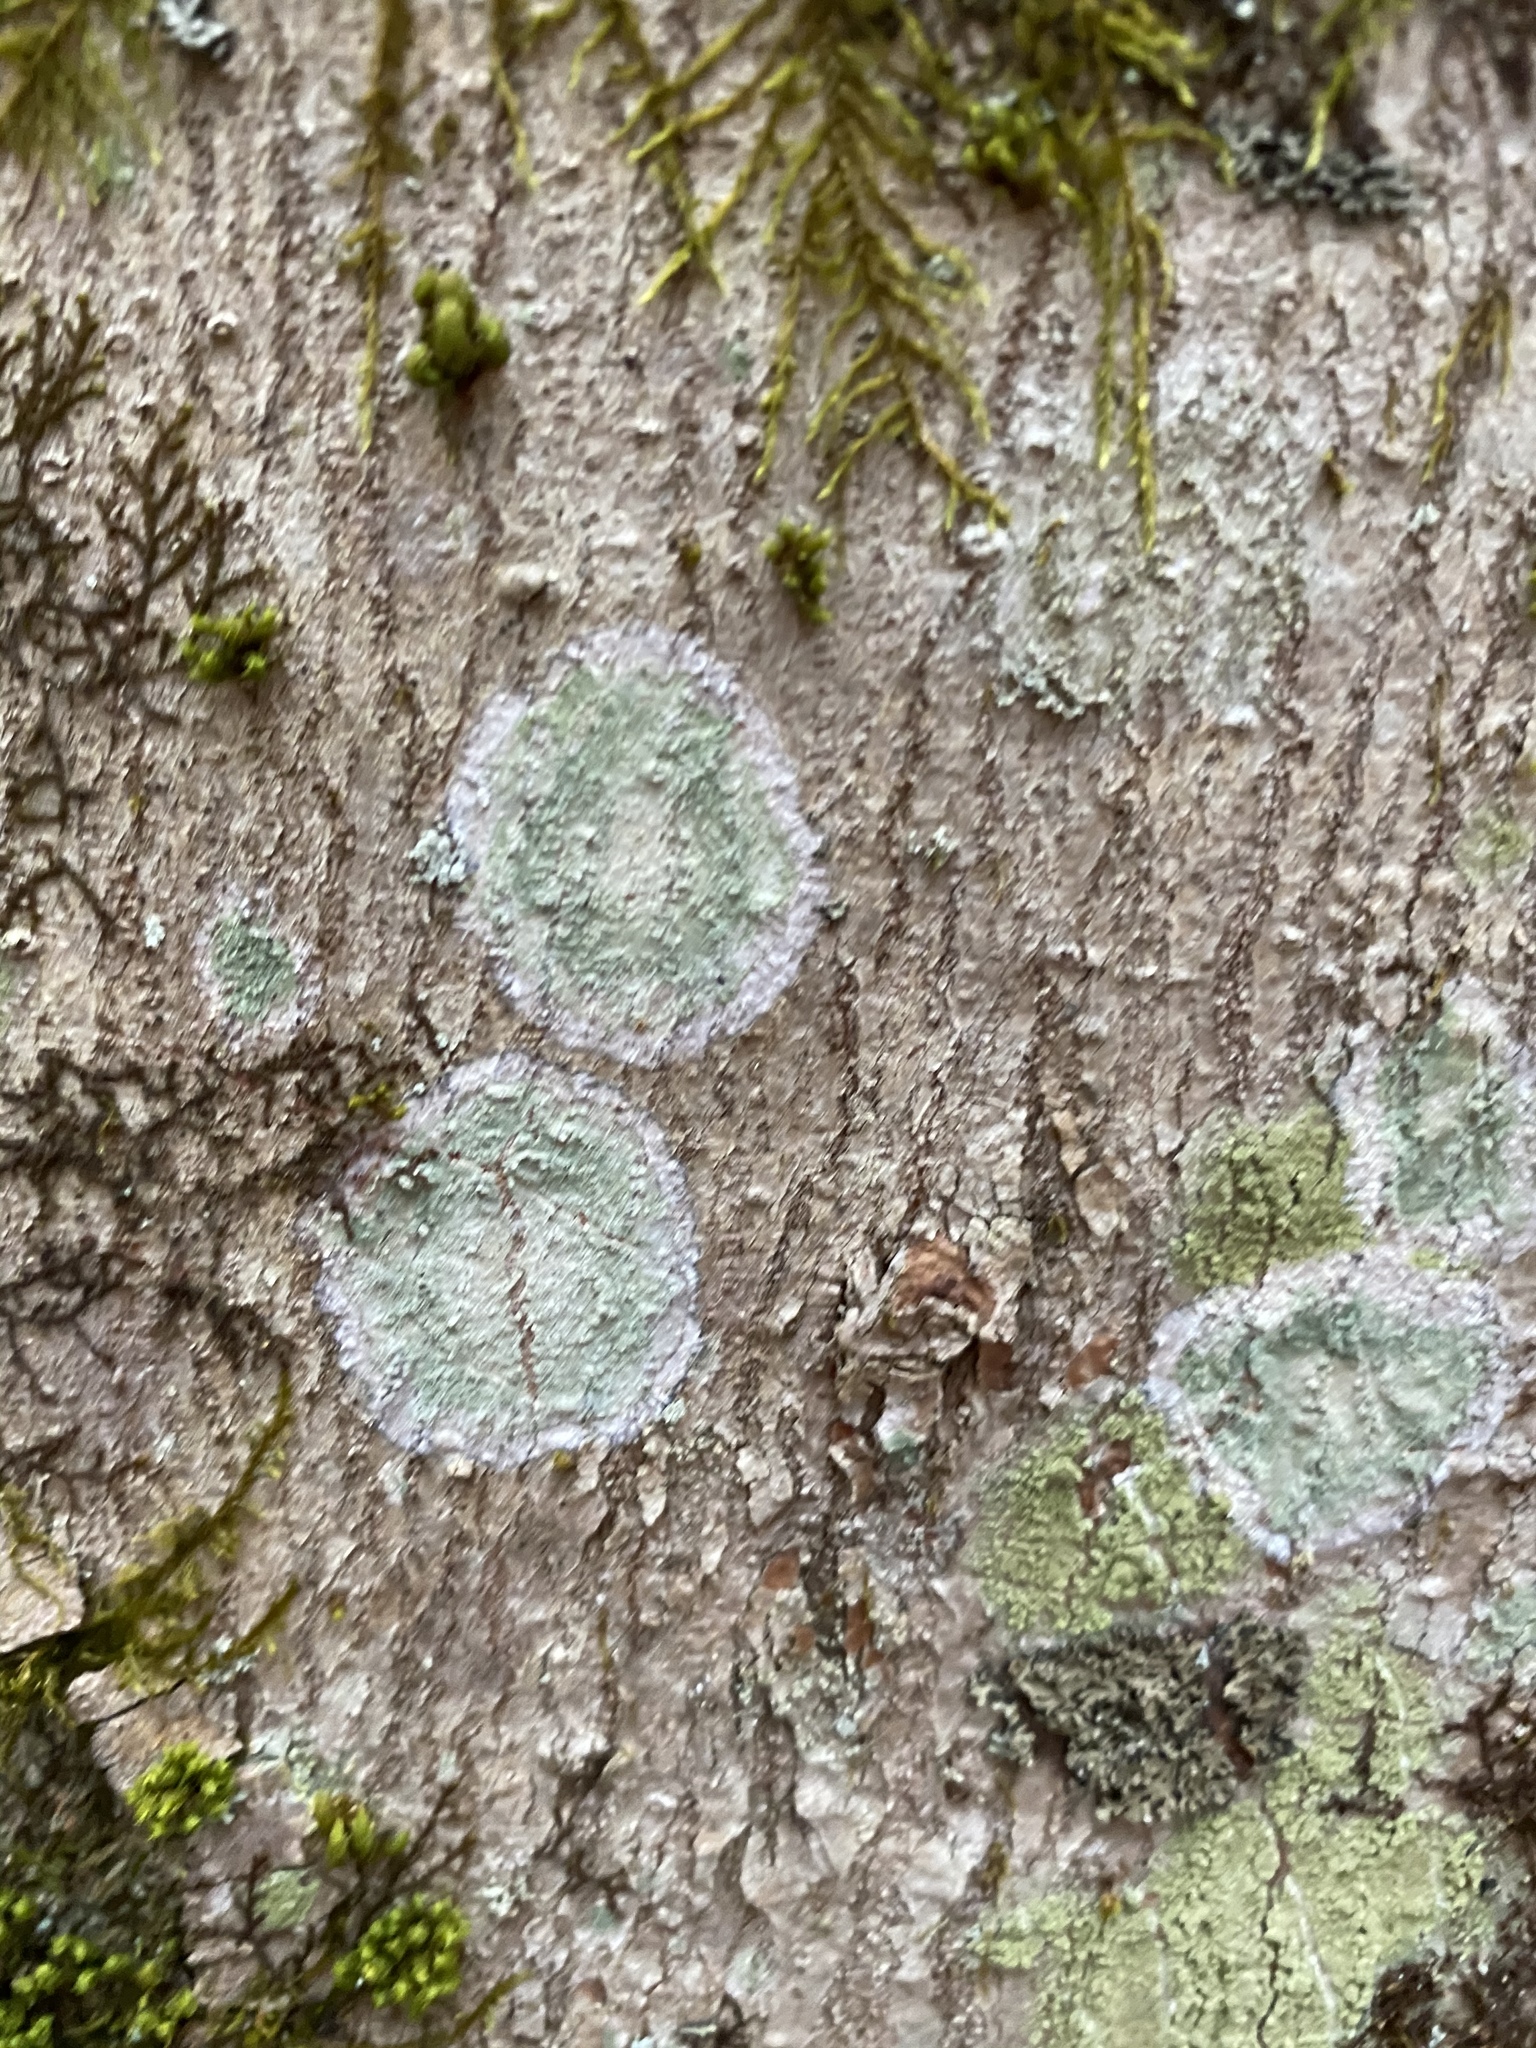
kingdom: Fungi
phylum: Ascomycota
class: Lecanoromycetes
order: Pertusariales
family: Pertusariaceae
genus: Verseghya
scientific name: Verseghya thysanophora
